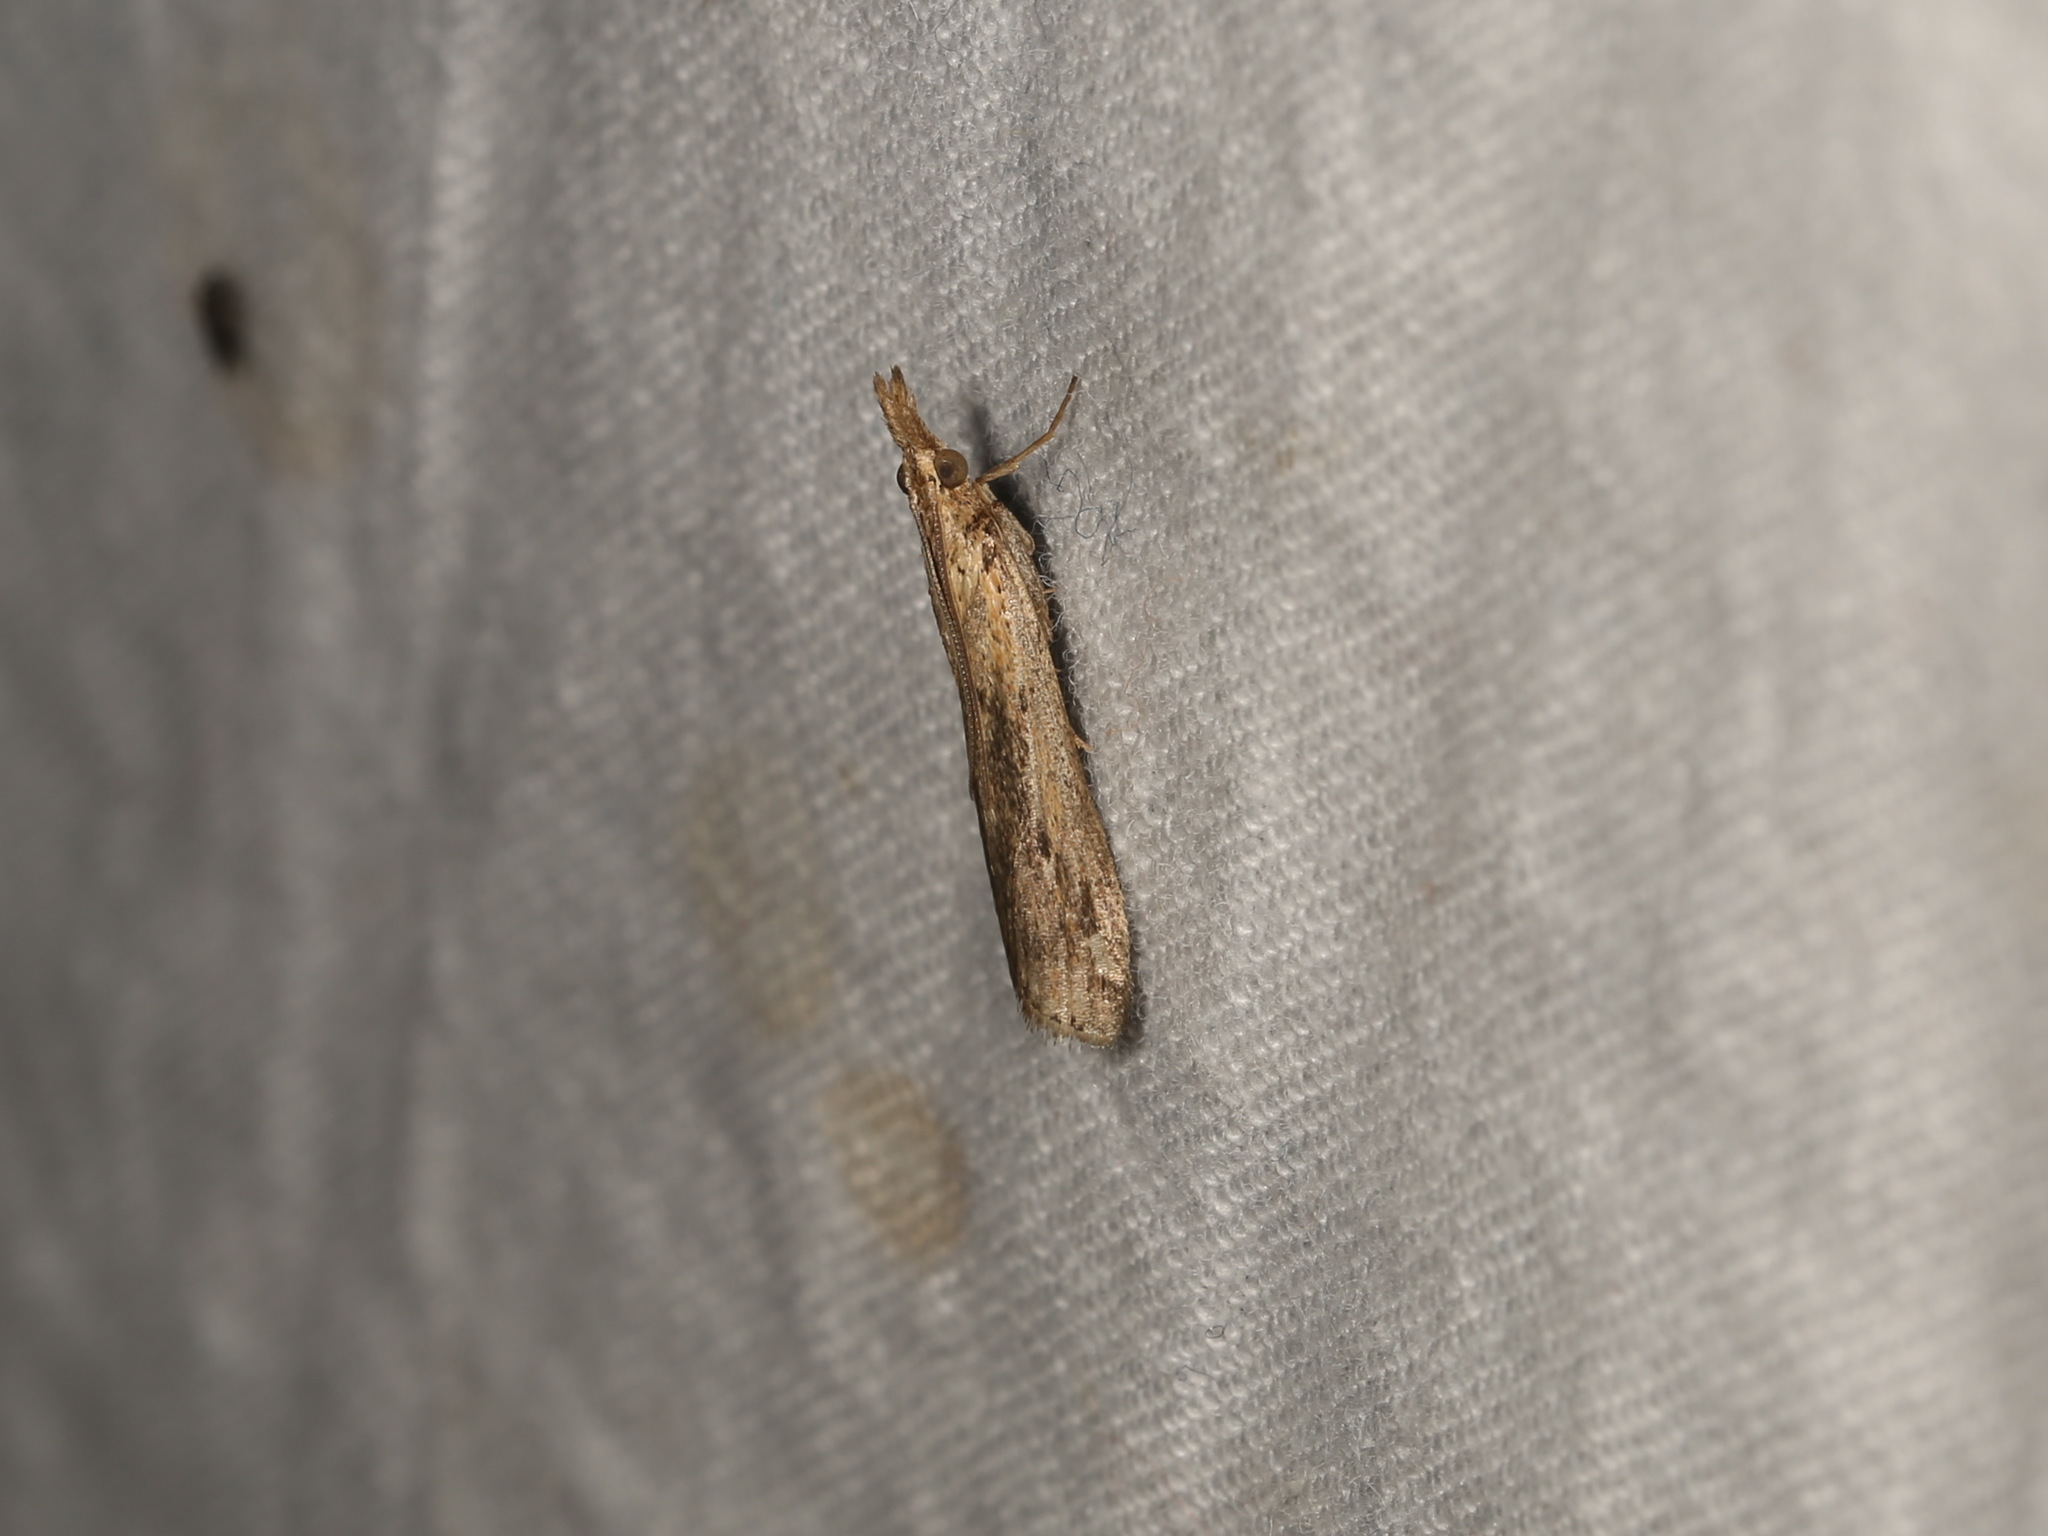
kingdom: Animalia
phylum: Arthropoda
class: Insecta
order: Lepidoptera
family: Pyralidae
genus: Faveria
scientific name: Faveria tritalis
